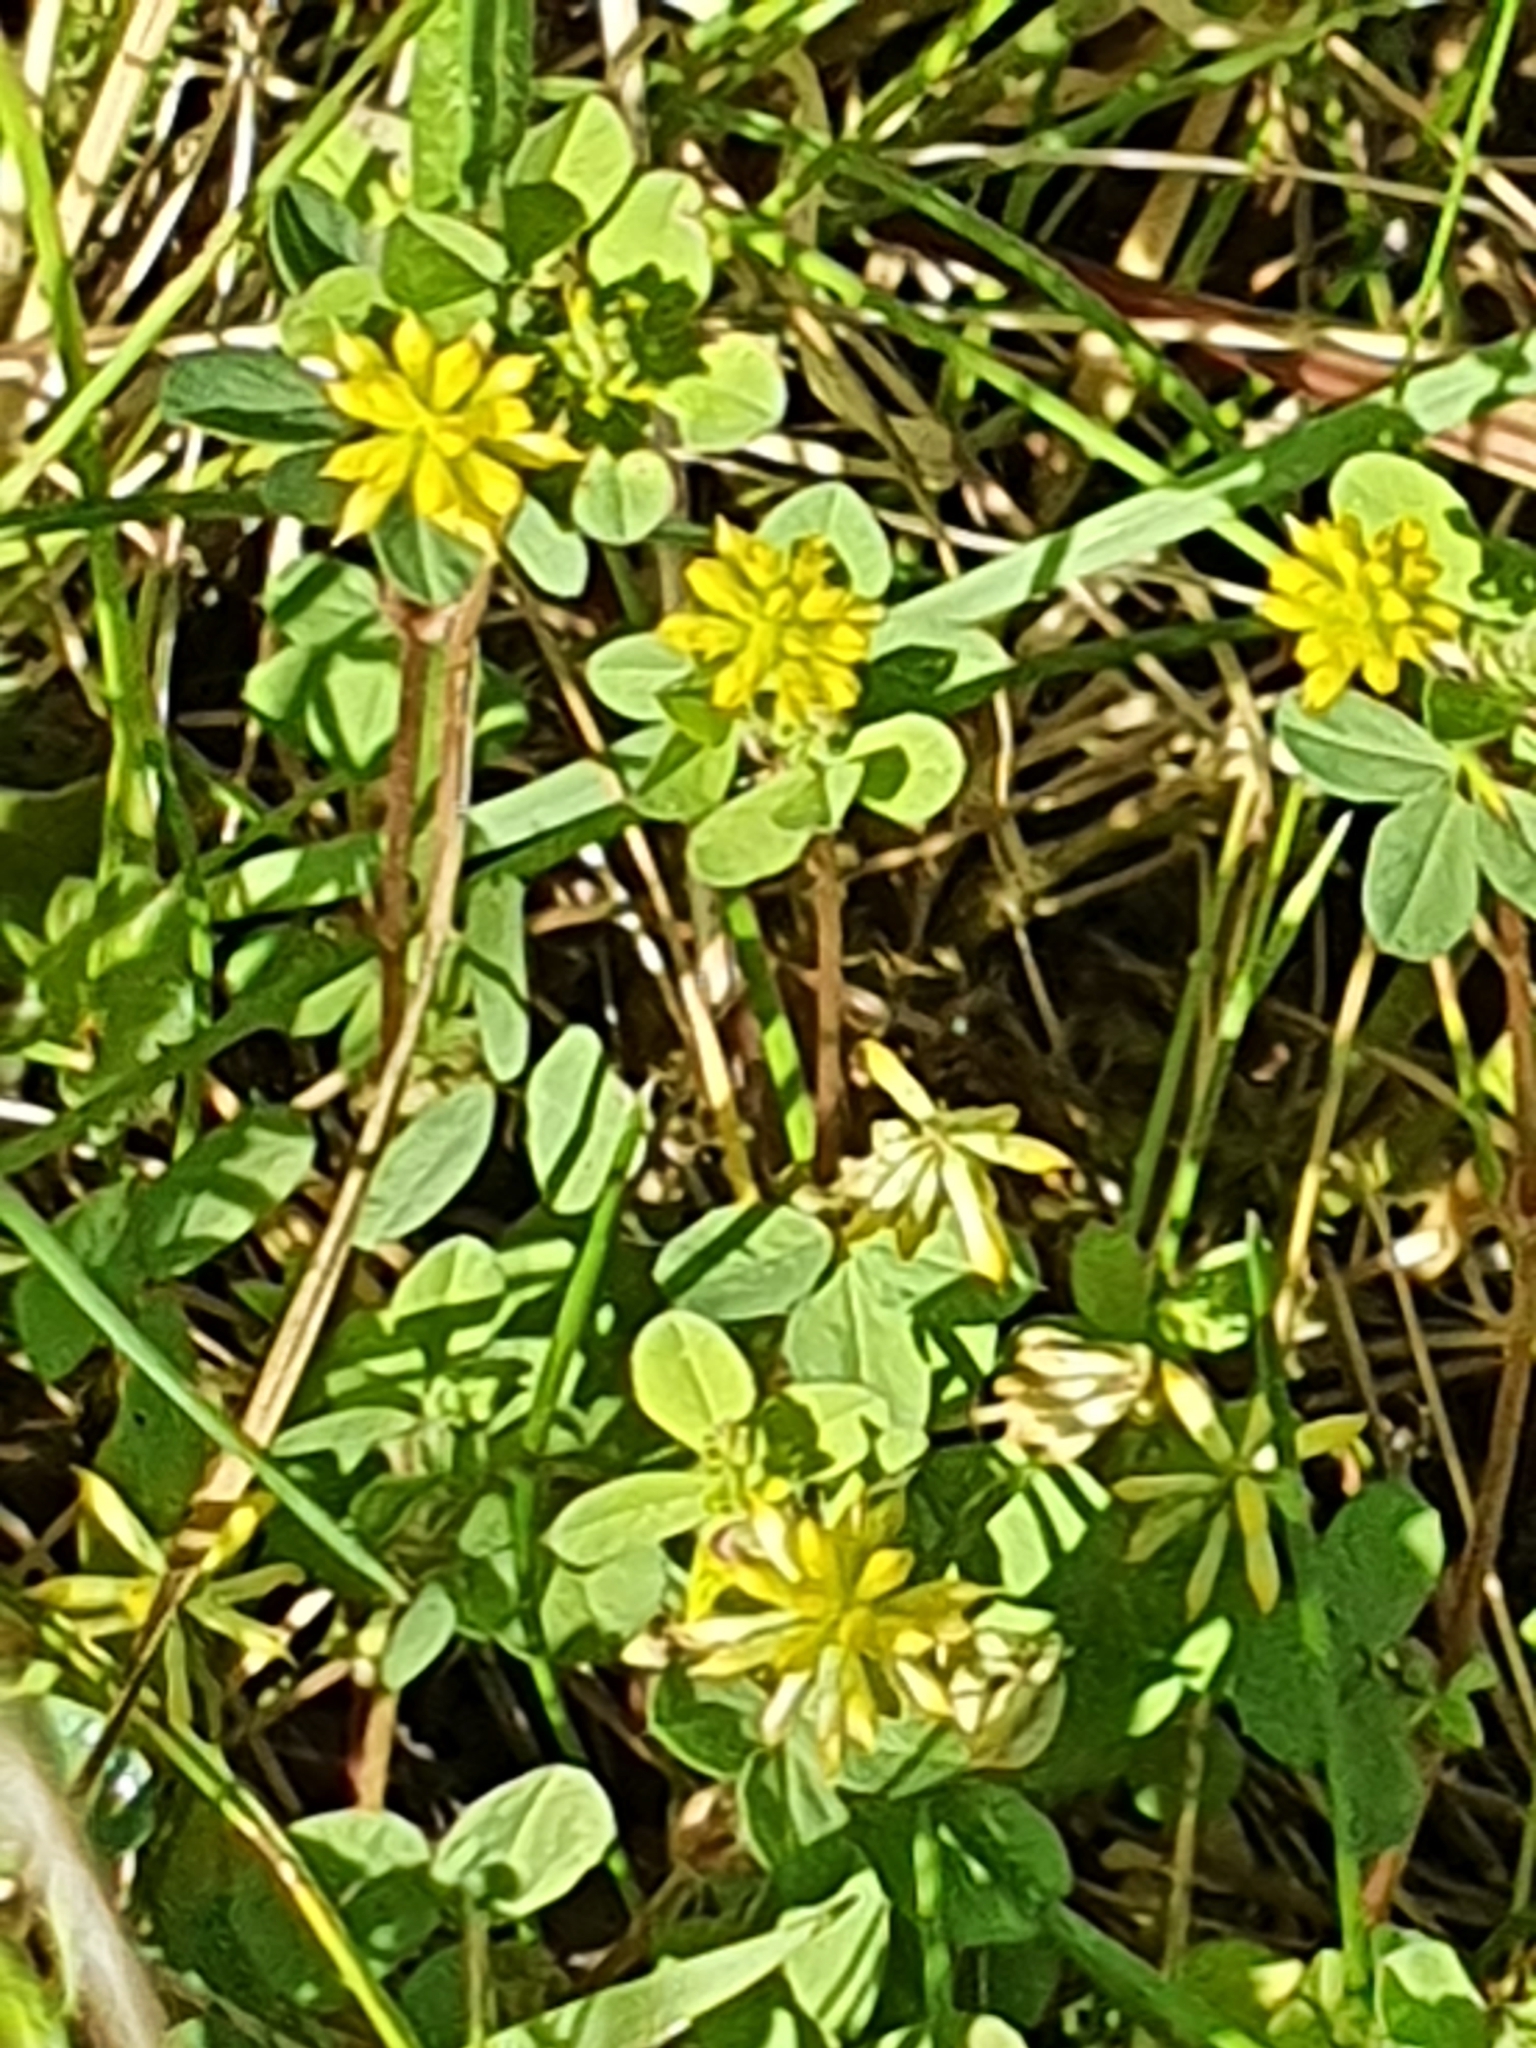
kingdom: Plantae
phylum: Tracheophyta
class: Magnoliopsida
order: Fabales
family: Fabaceae
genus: Trifolium
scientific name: Trifolium dubium
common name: Suckling clover
